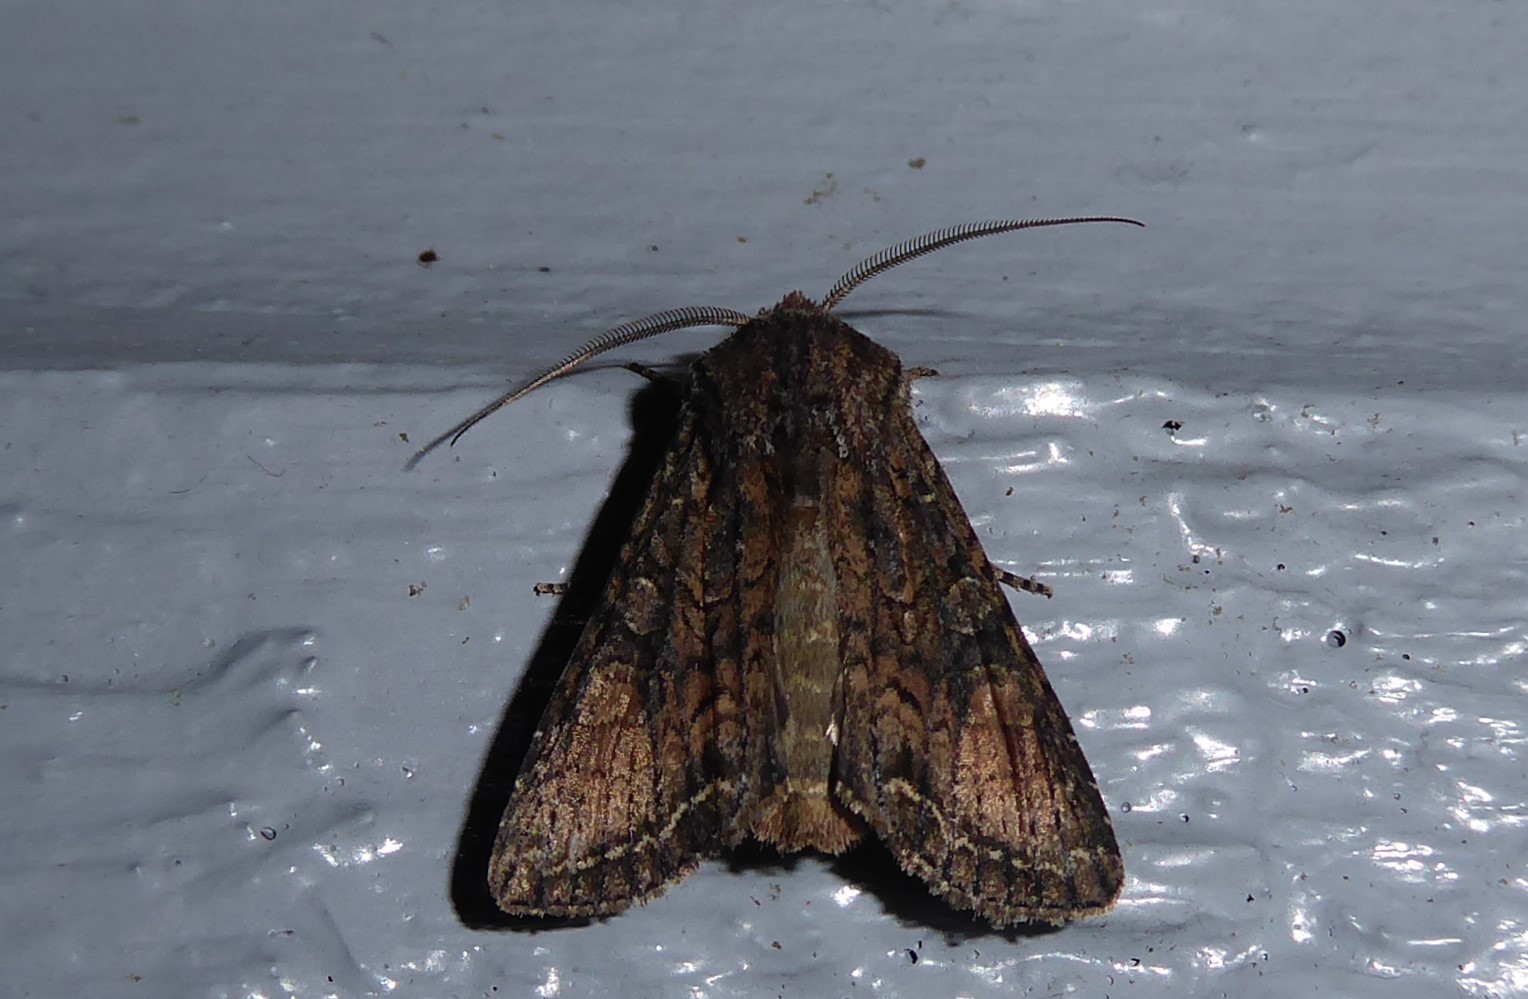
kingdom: Animalia
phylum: Arthropoda
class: Insecta
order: Lepidoptera
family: Noctuidae
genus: Ichneutica
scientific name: Ichneutica mutans
